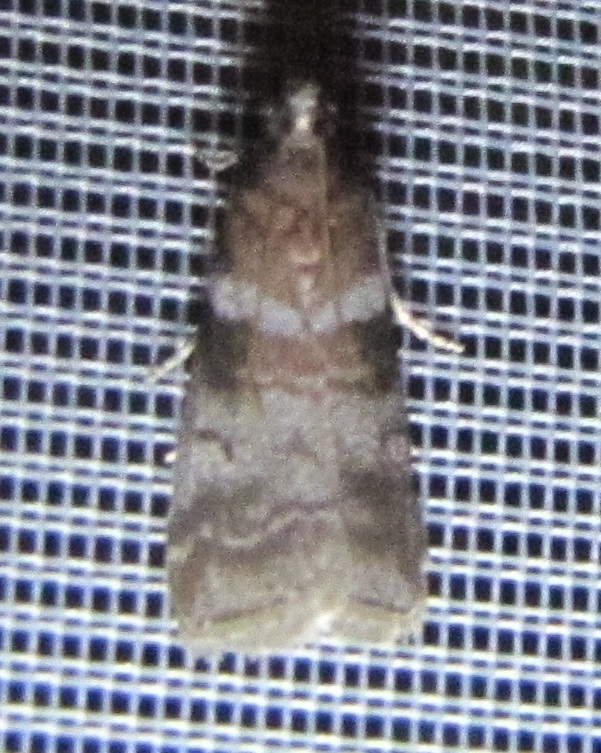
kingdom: Animalia
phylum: Arthropoda
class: Insecta
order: Lepidoptera
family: Pyralidae
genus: Sciota
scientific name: Sciota uvinella
